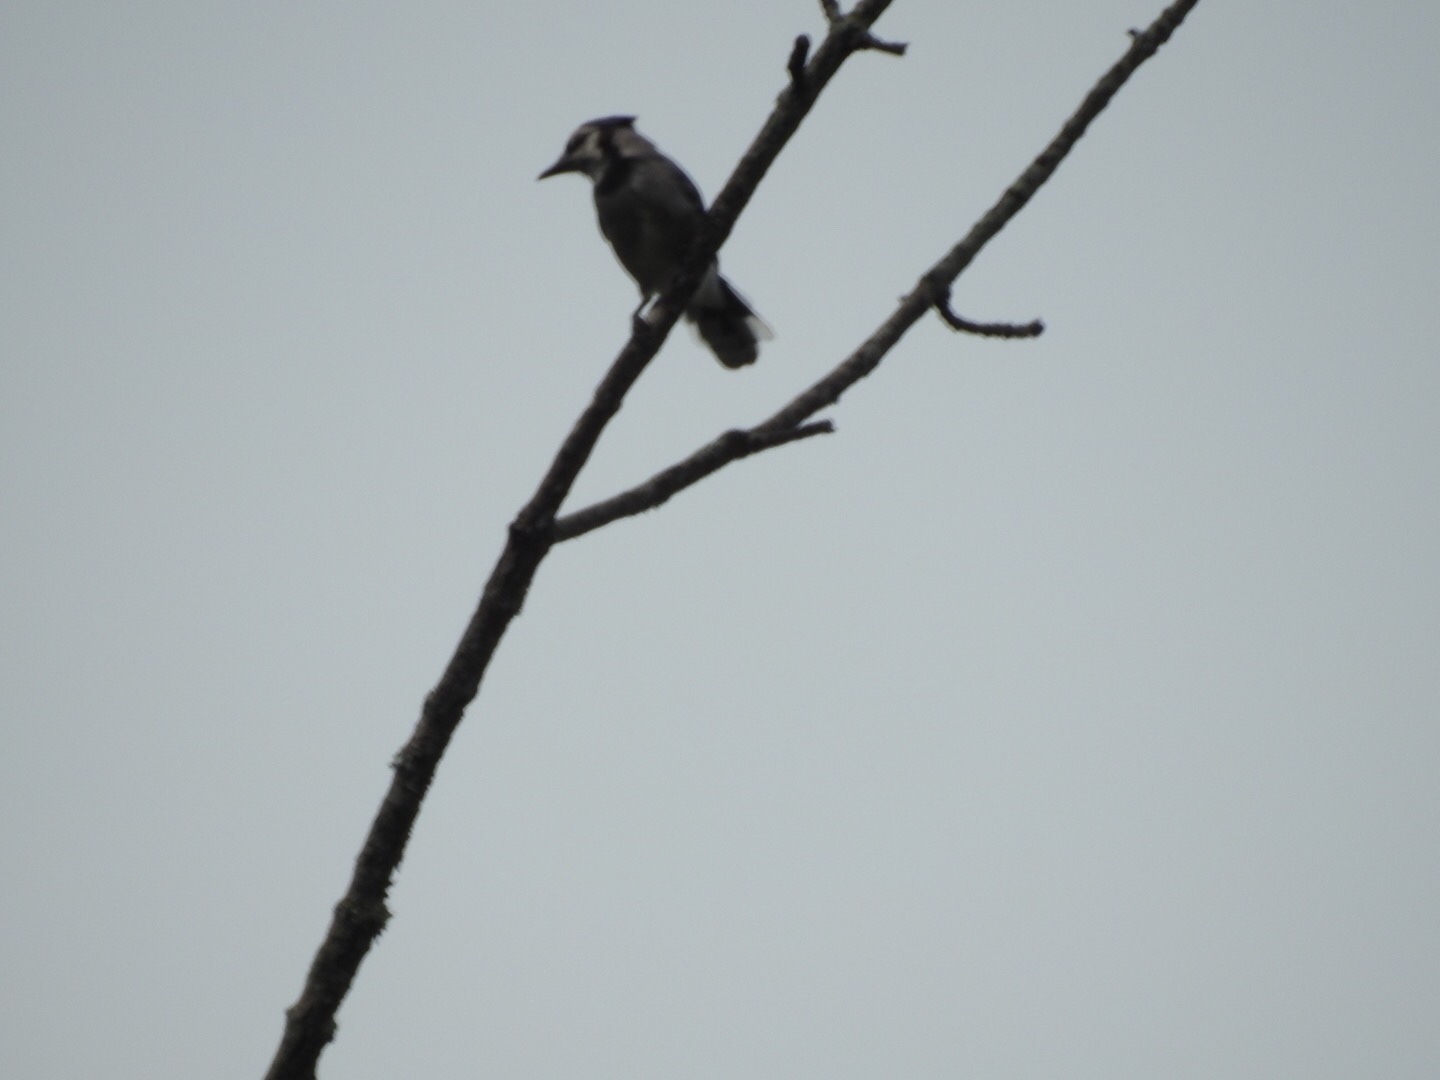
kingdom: Animalia
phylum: Chordata
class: Aves
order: Passeriformes
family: Corvidae
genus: Cyanocitta
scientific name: Cyanocitta cristata
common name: Blue jay
